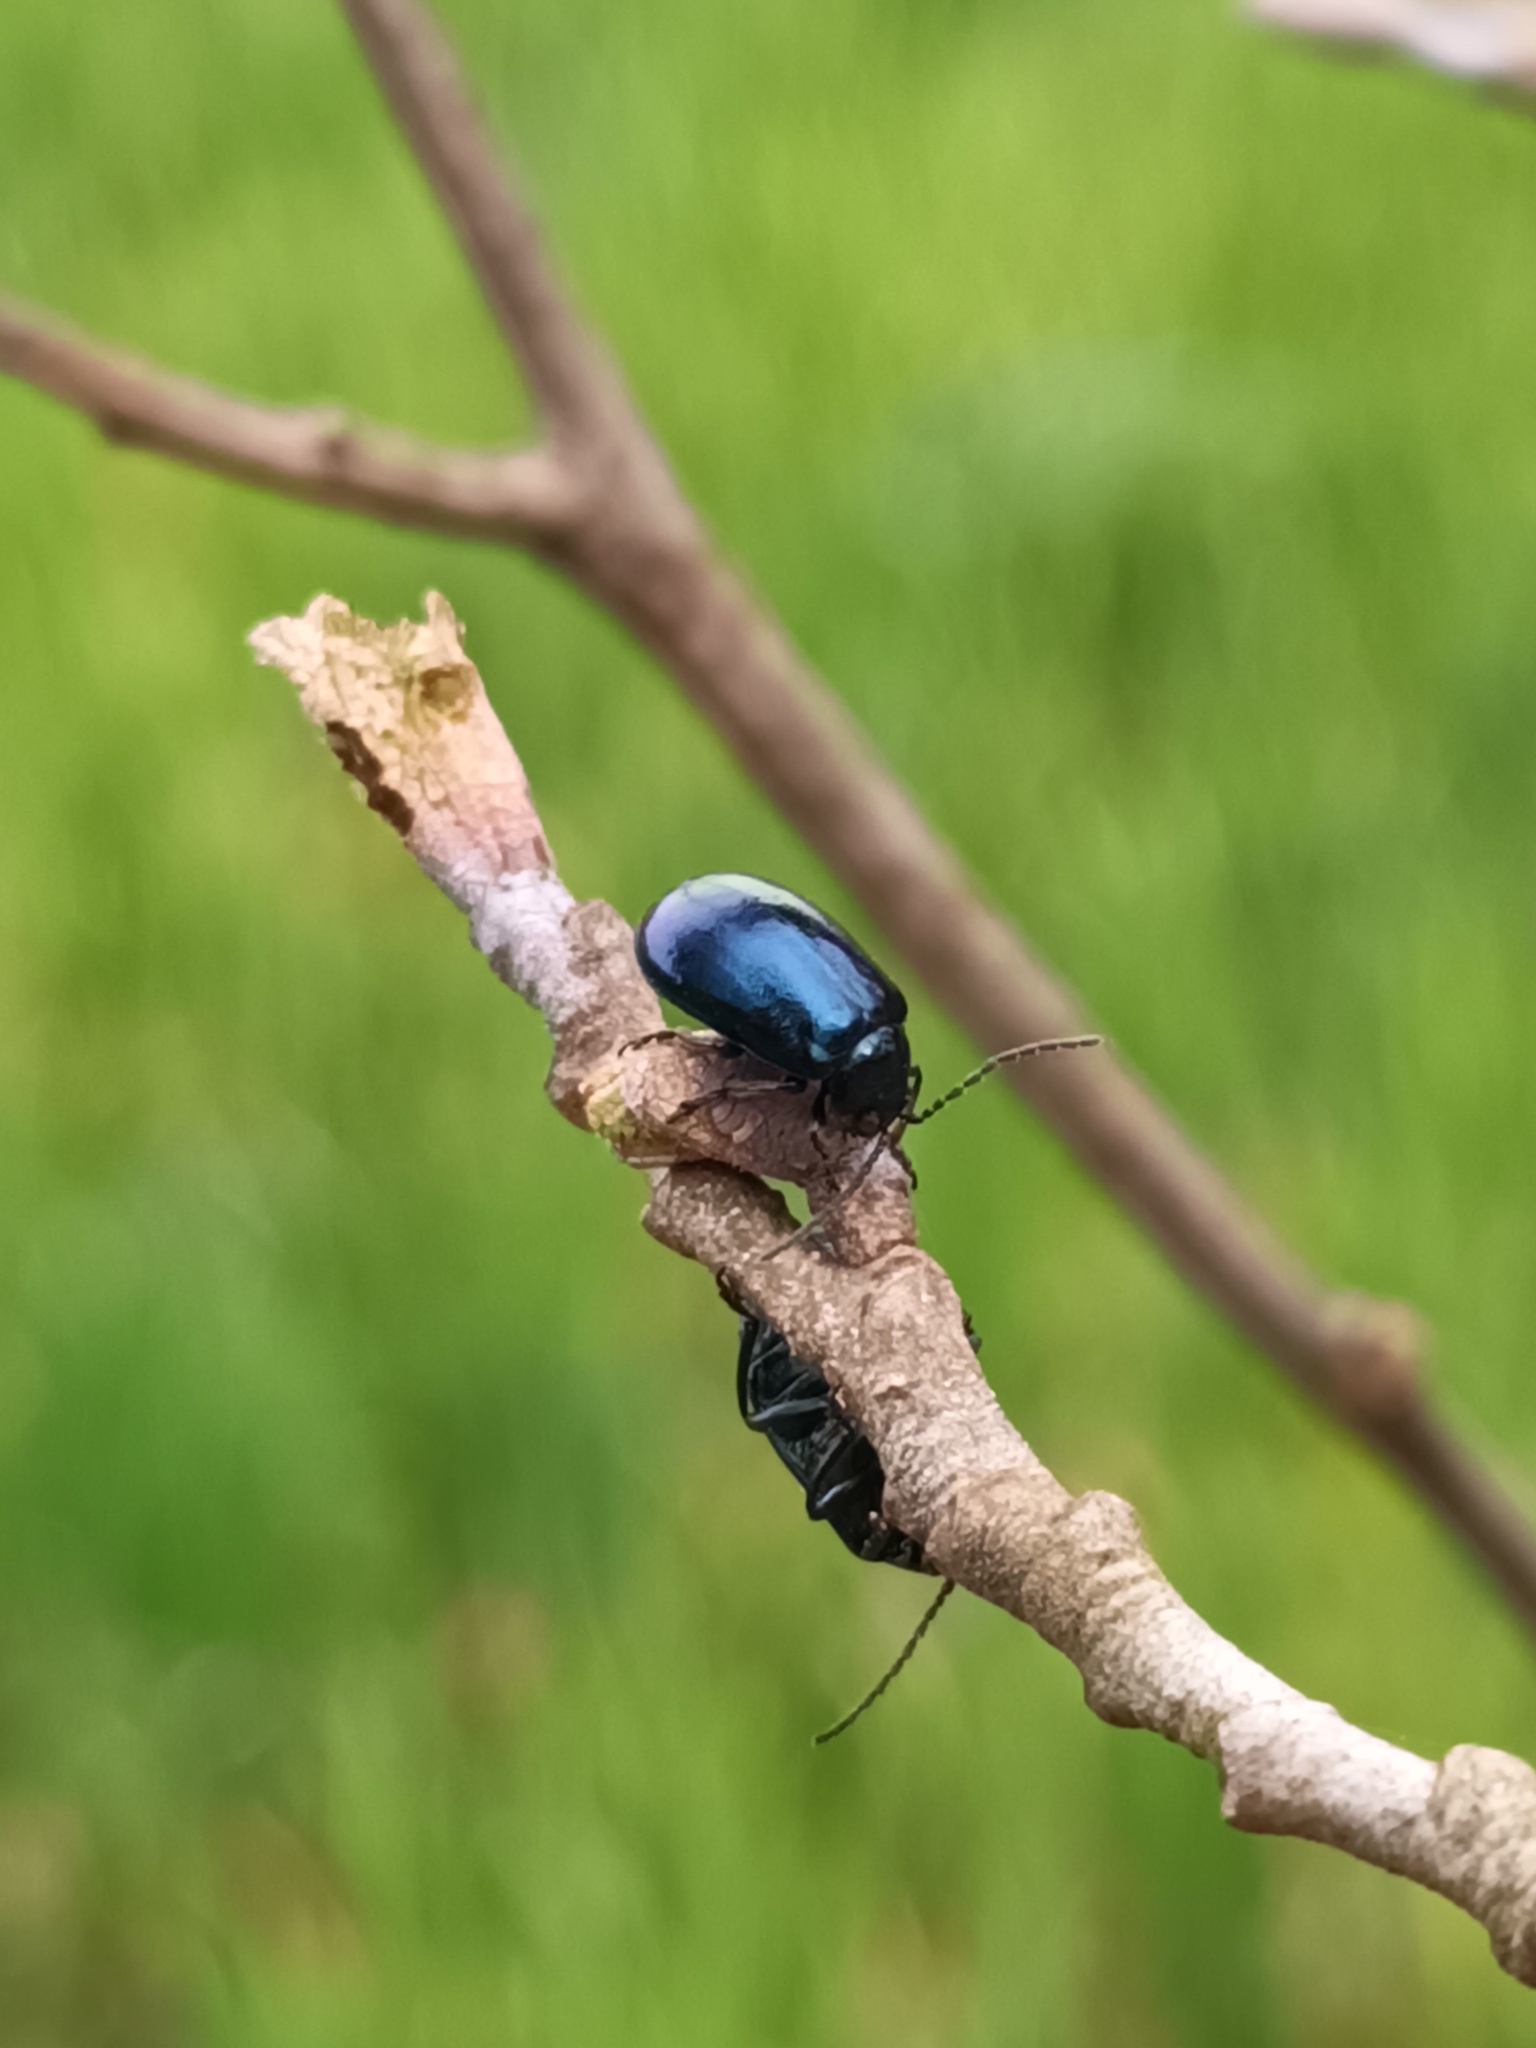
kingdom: Animalia
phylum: Arthropoda
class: Insecta
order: Coleoptera
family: Chrysomelidae
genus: Agelastica
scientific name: Agelastica alni
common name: Alder leaf beetle
